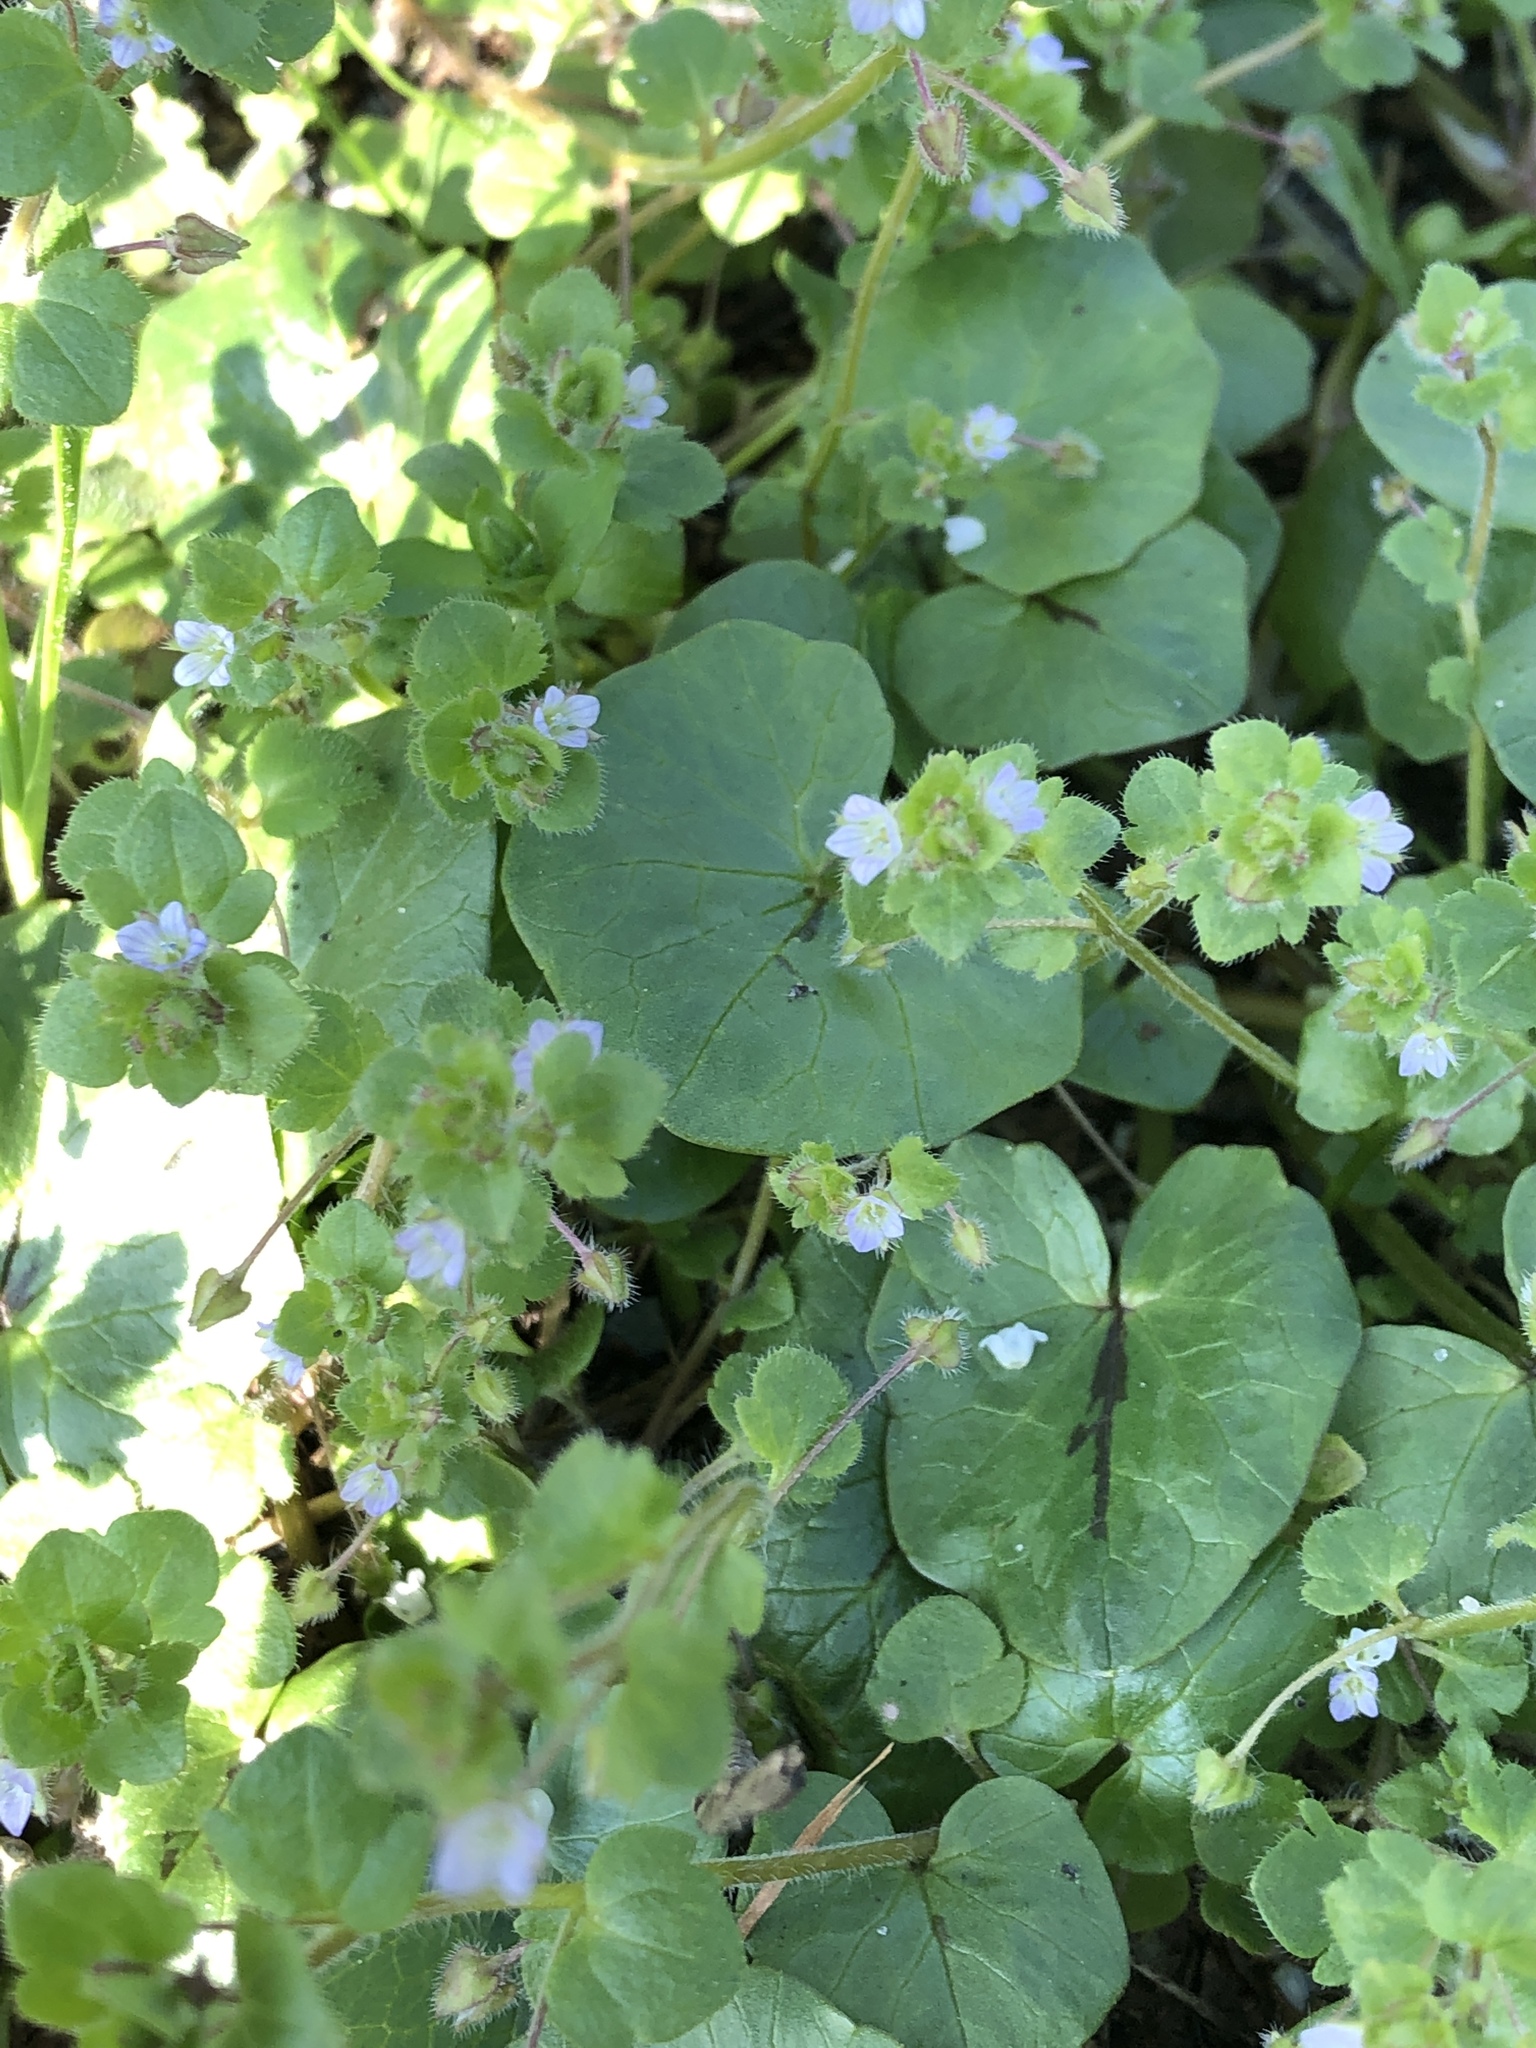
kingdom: Plantae
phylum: Tracheophyta
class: Magnoliopsida
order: Lamiales
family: Plantaginaceae
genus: Veronica
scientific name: Veronica sublobata
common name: False ivy-leaved speedwell
